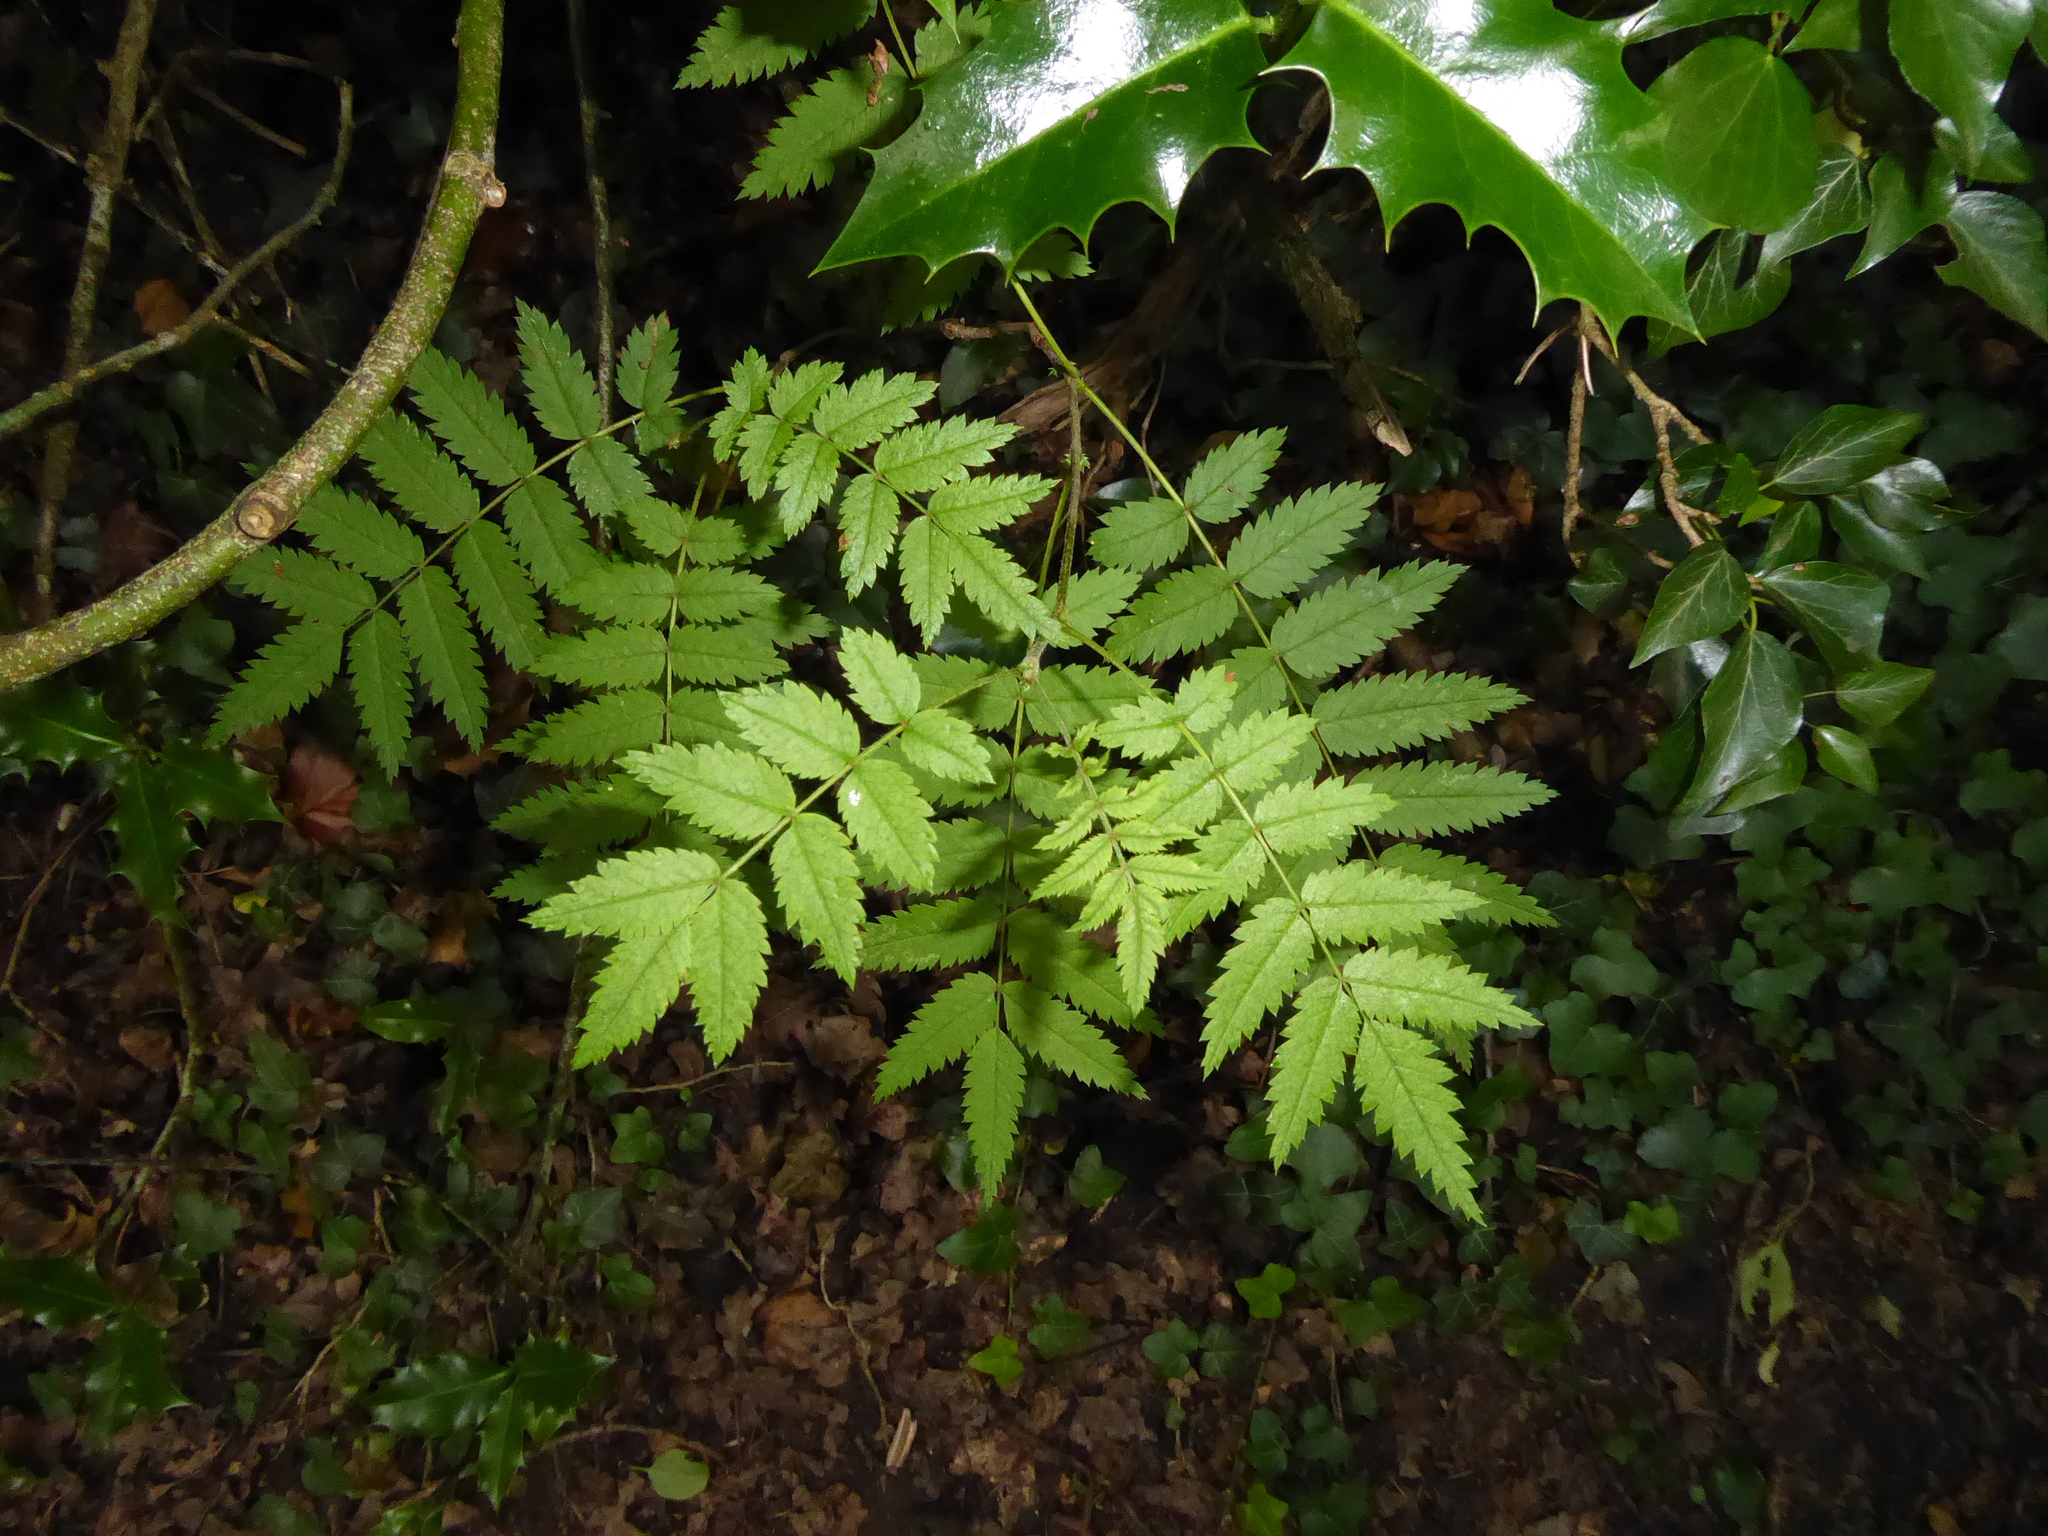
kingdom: Plantae
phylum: Tracheophyta
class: Magnoliopsida
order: Rosales
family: Rosaceae
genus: Sorbus
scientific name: Sorbus aucuparia
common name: Rowan
